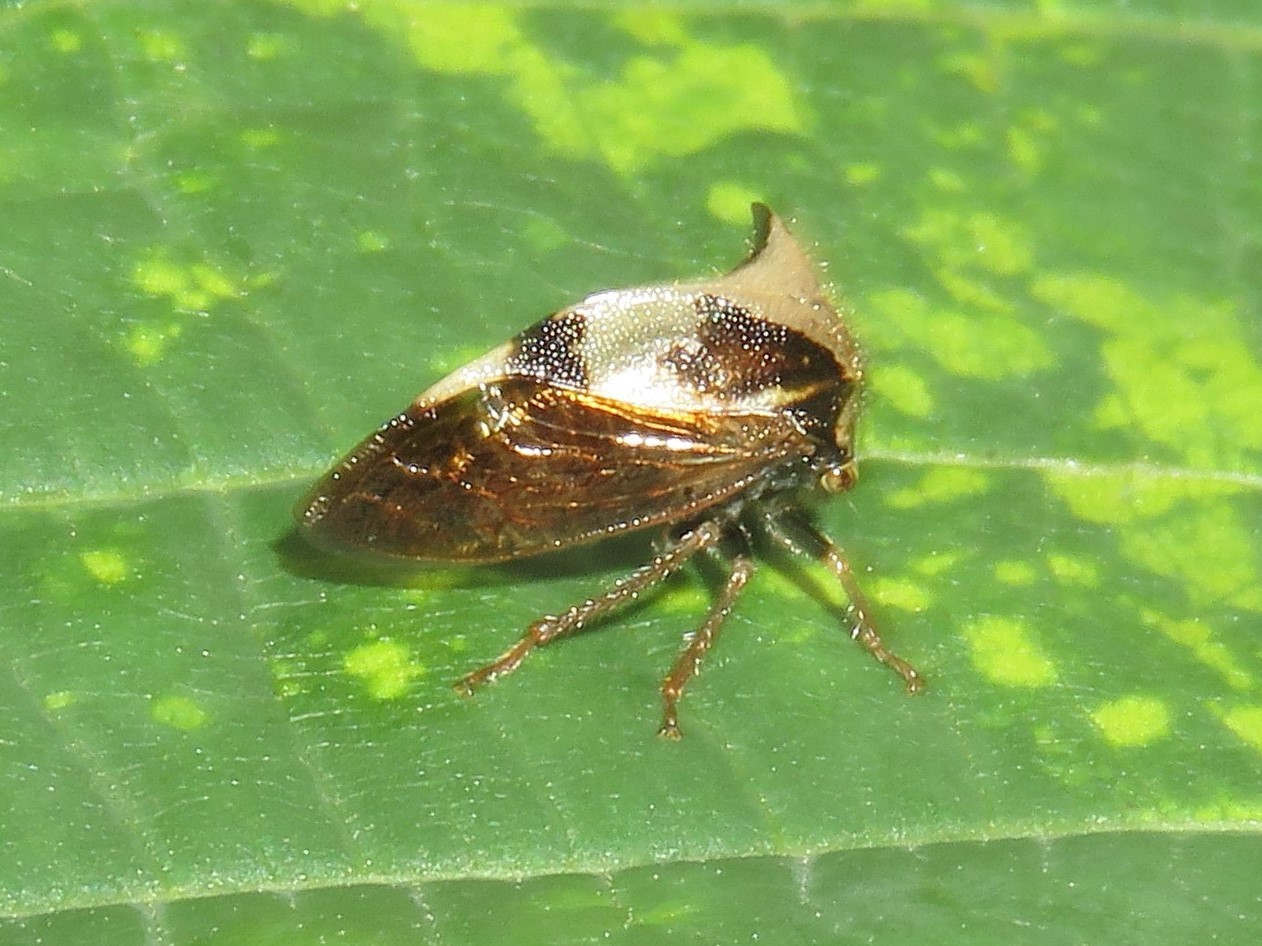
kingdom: Animalia
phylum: Arthropoda
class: Insecta
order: Hemiptera
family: Membracidae
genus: Stictocephala
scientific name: Stictocephala diceros
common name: Two-horned treehopper
